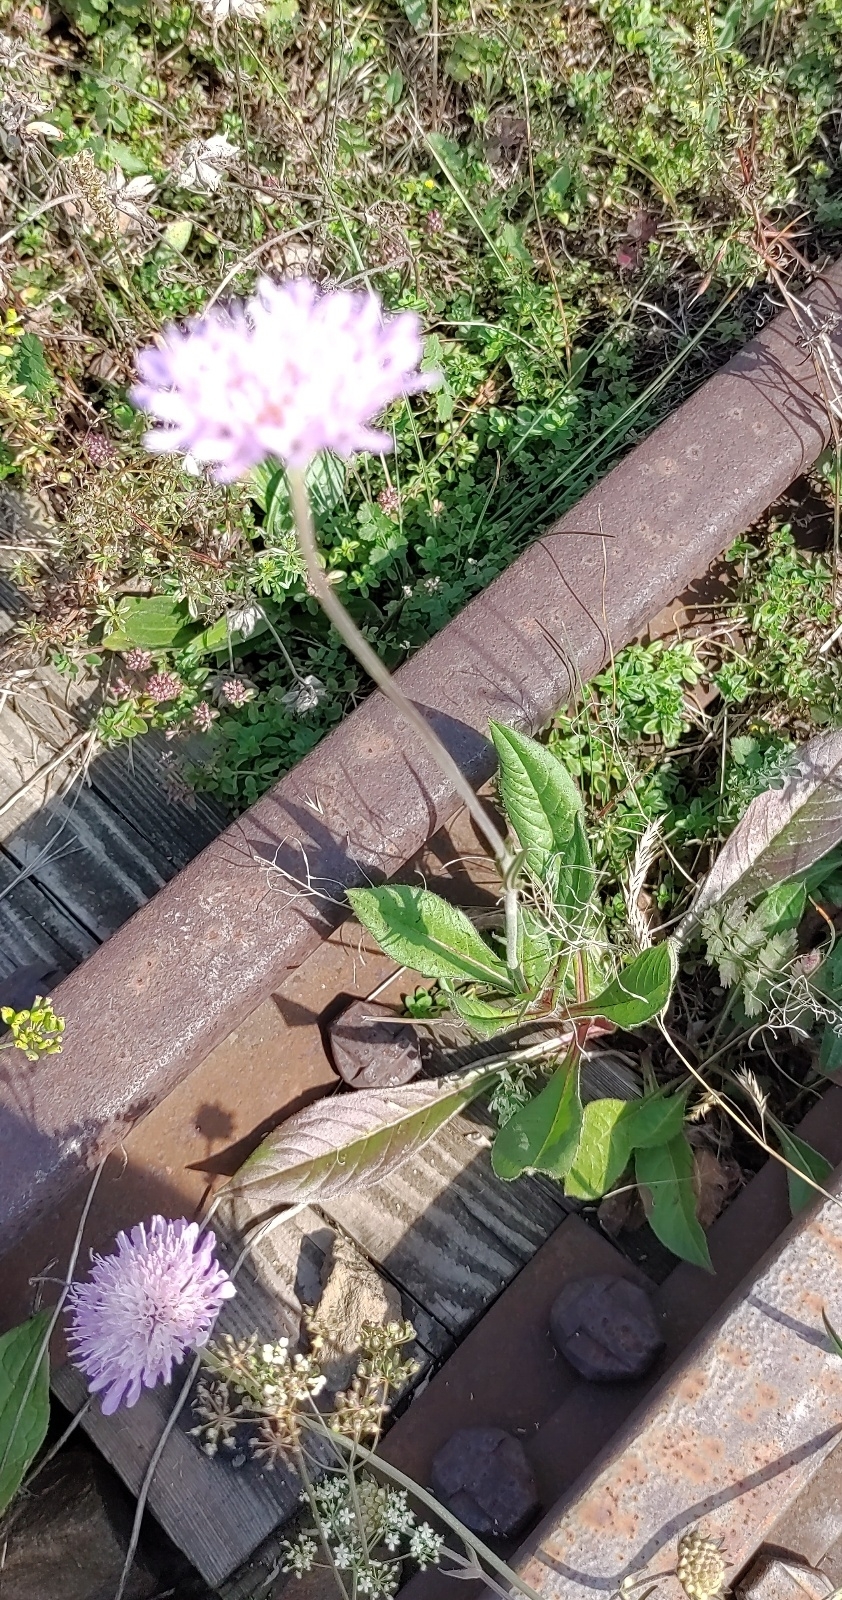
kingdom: Plantae
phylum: Tracheophyta
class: Magnoliopsida
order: Dipsacales
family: Caprifoliaceae
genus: Knautia
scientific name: Knautia arvensis
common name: Field scabiosa
